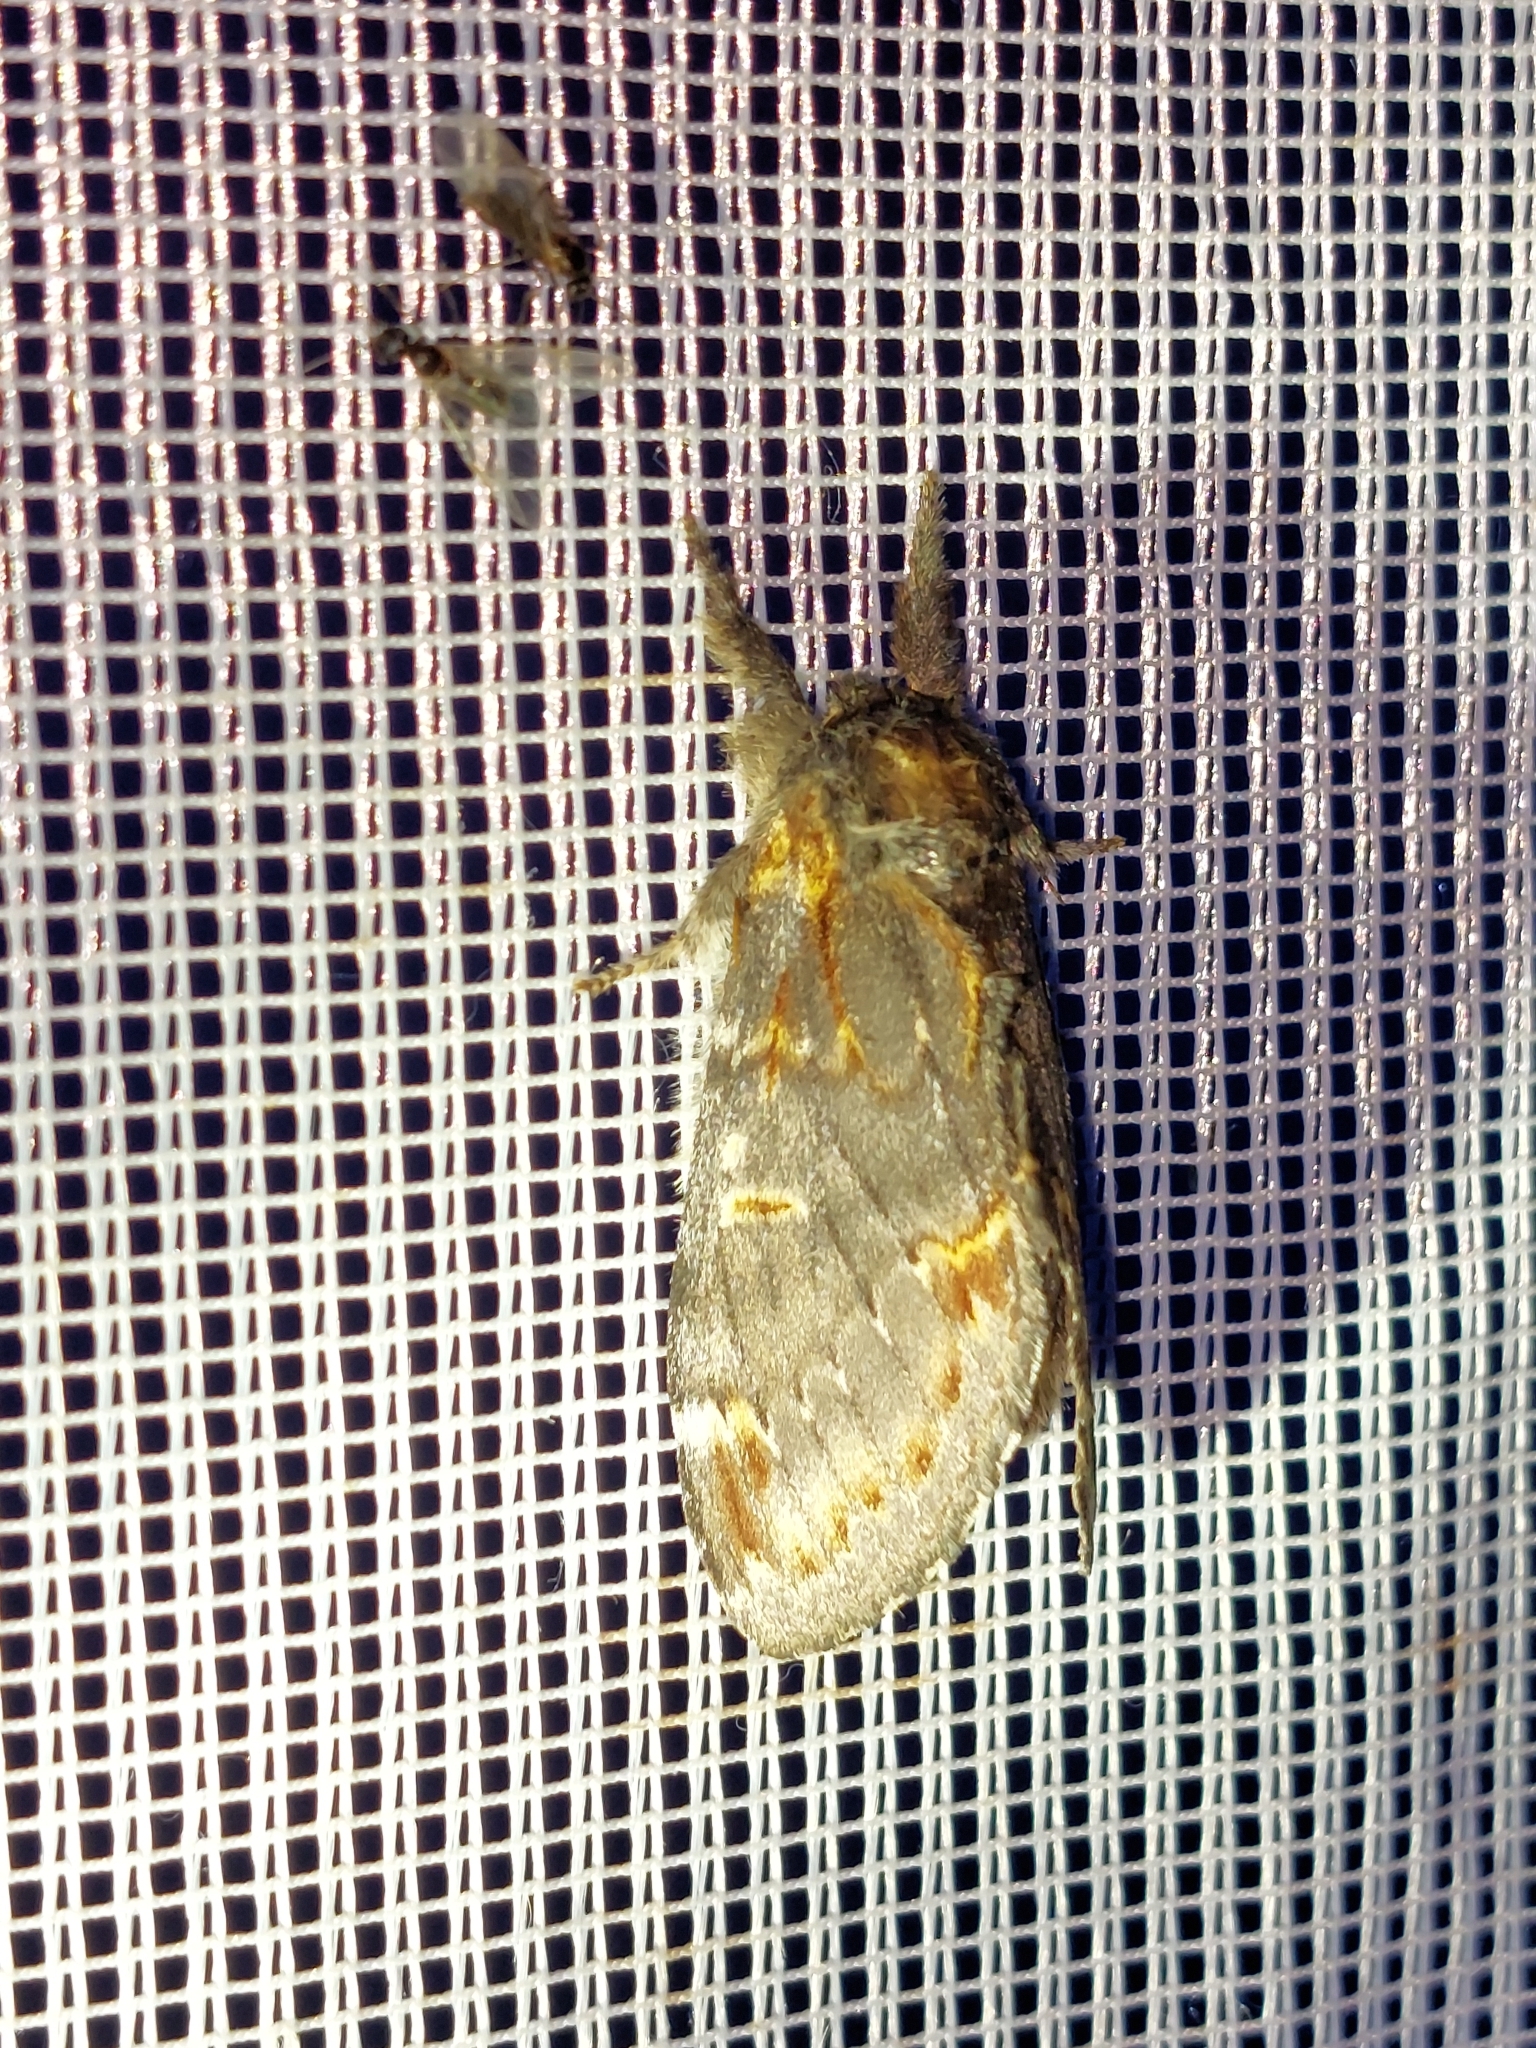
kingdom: Animalia
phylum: Arthropoda
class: Insecta
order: Lepidoptera
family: Notodontidae
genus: Notodonta
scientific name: Notodonta dromedarius
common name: Iron prominent
